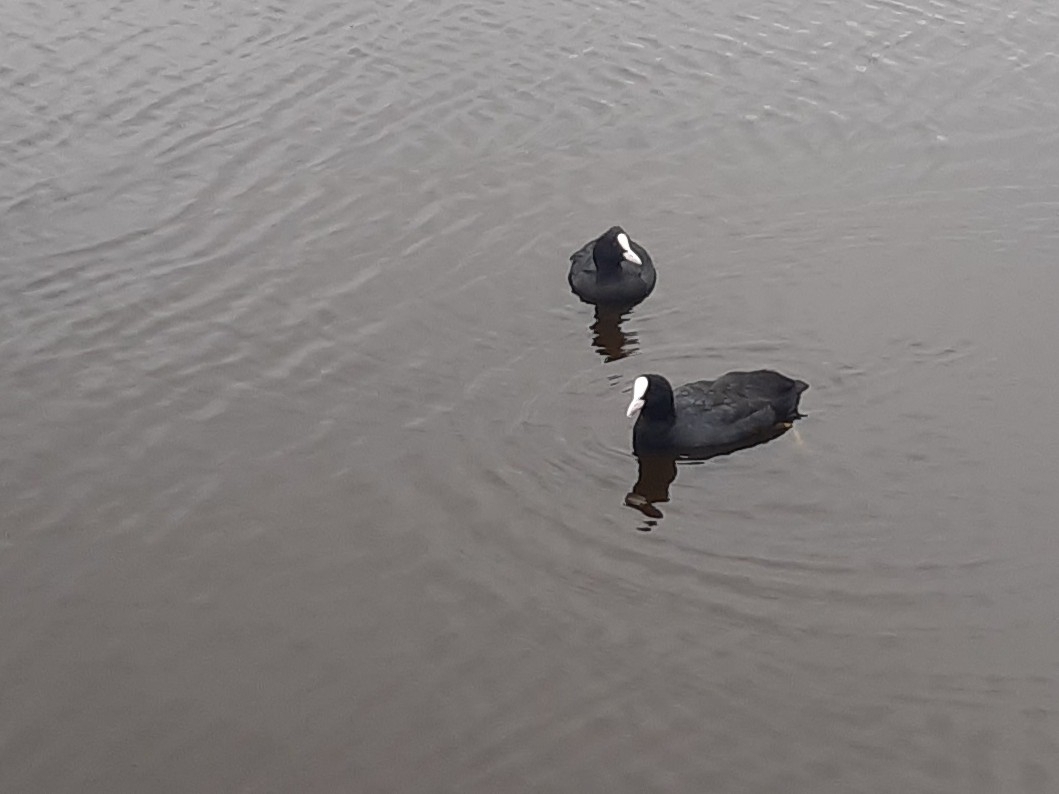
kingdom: Animalia
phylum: Chordata
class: Aves
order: Gruiformes
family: Rallidae
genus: Fulica
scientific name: Fulica atra
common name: Eurasian coot
